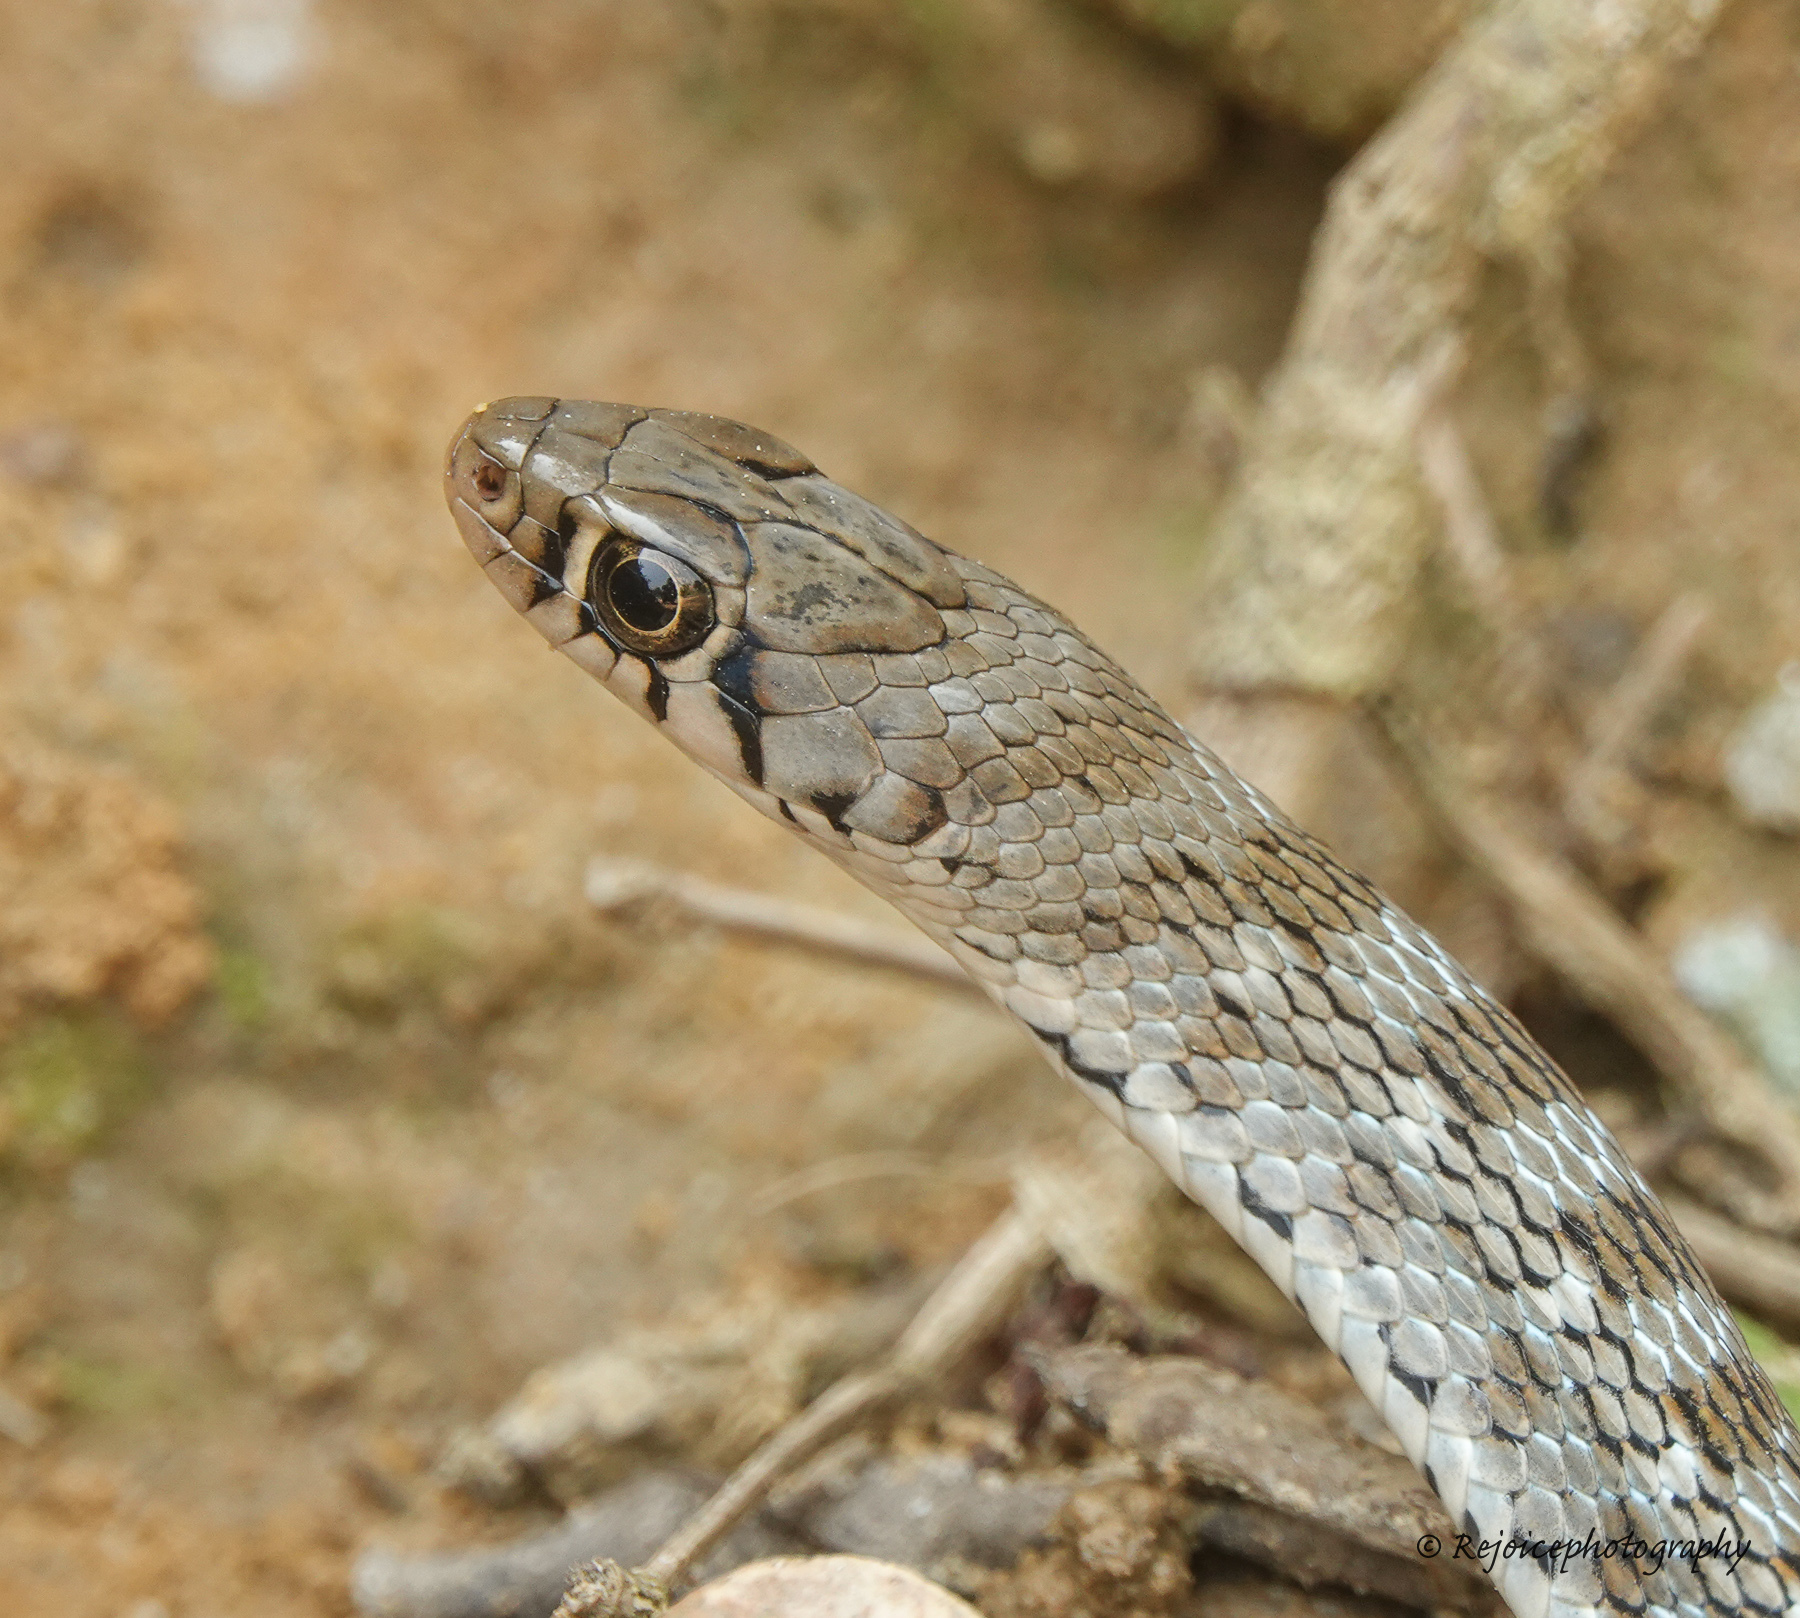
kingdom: Animalia
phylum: Chordata
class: Squamata
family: Colubridae
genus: Amphiesma
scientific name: Amphiesma stolatum
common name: Buff striped keelback
